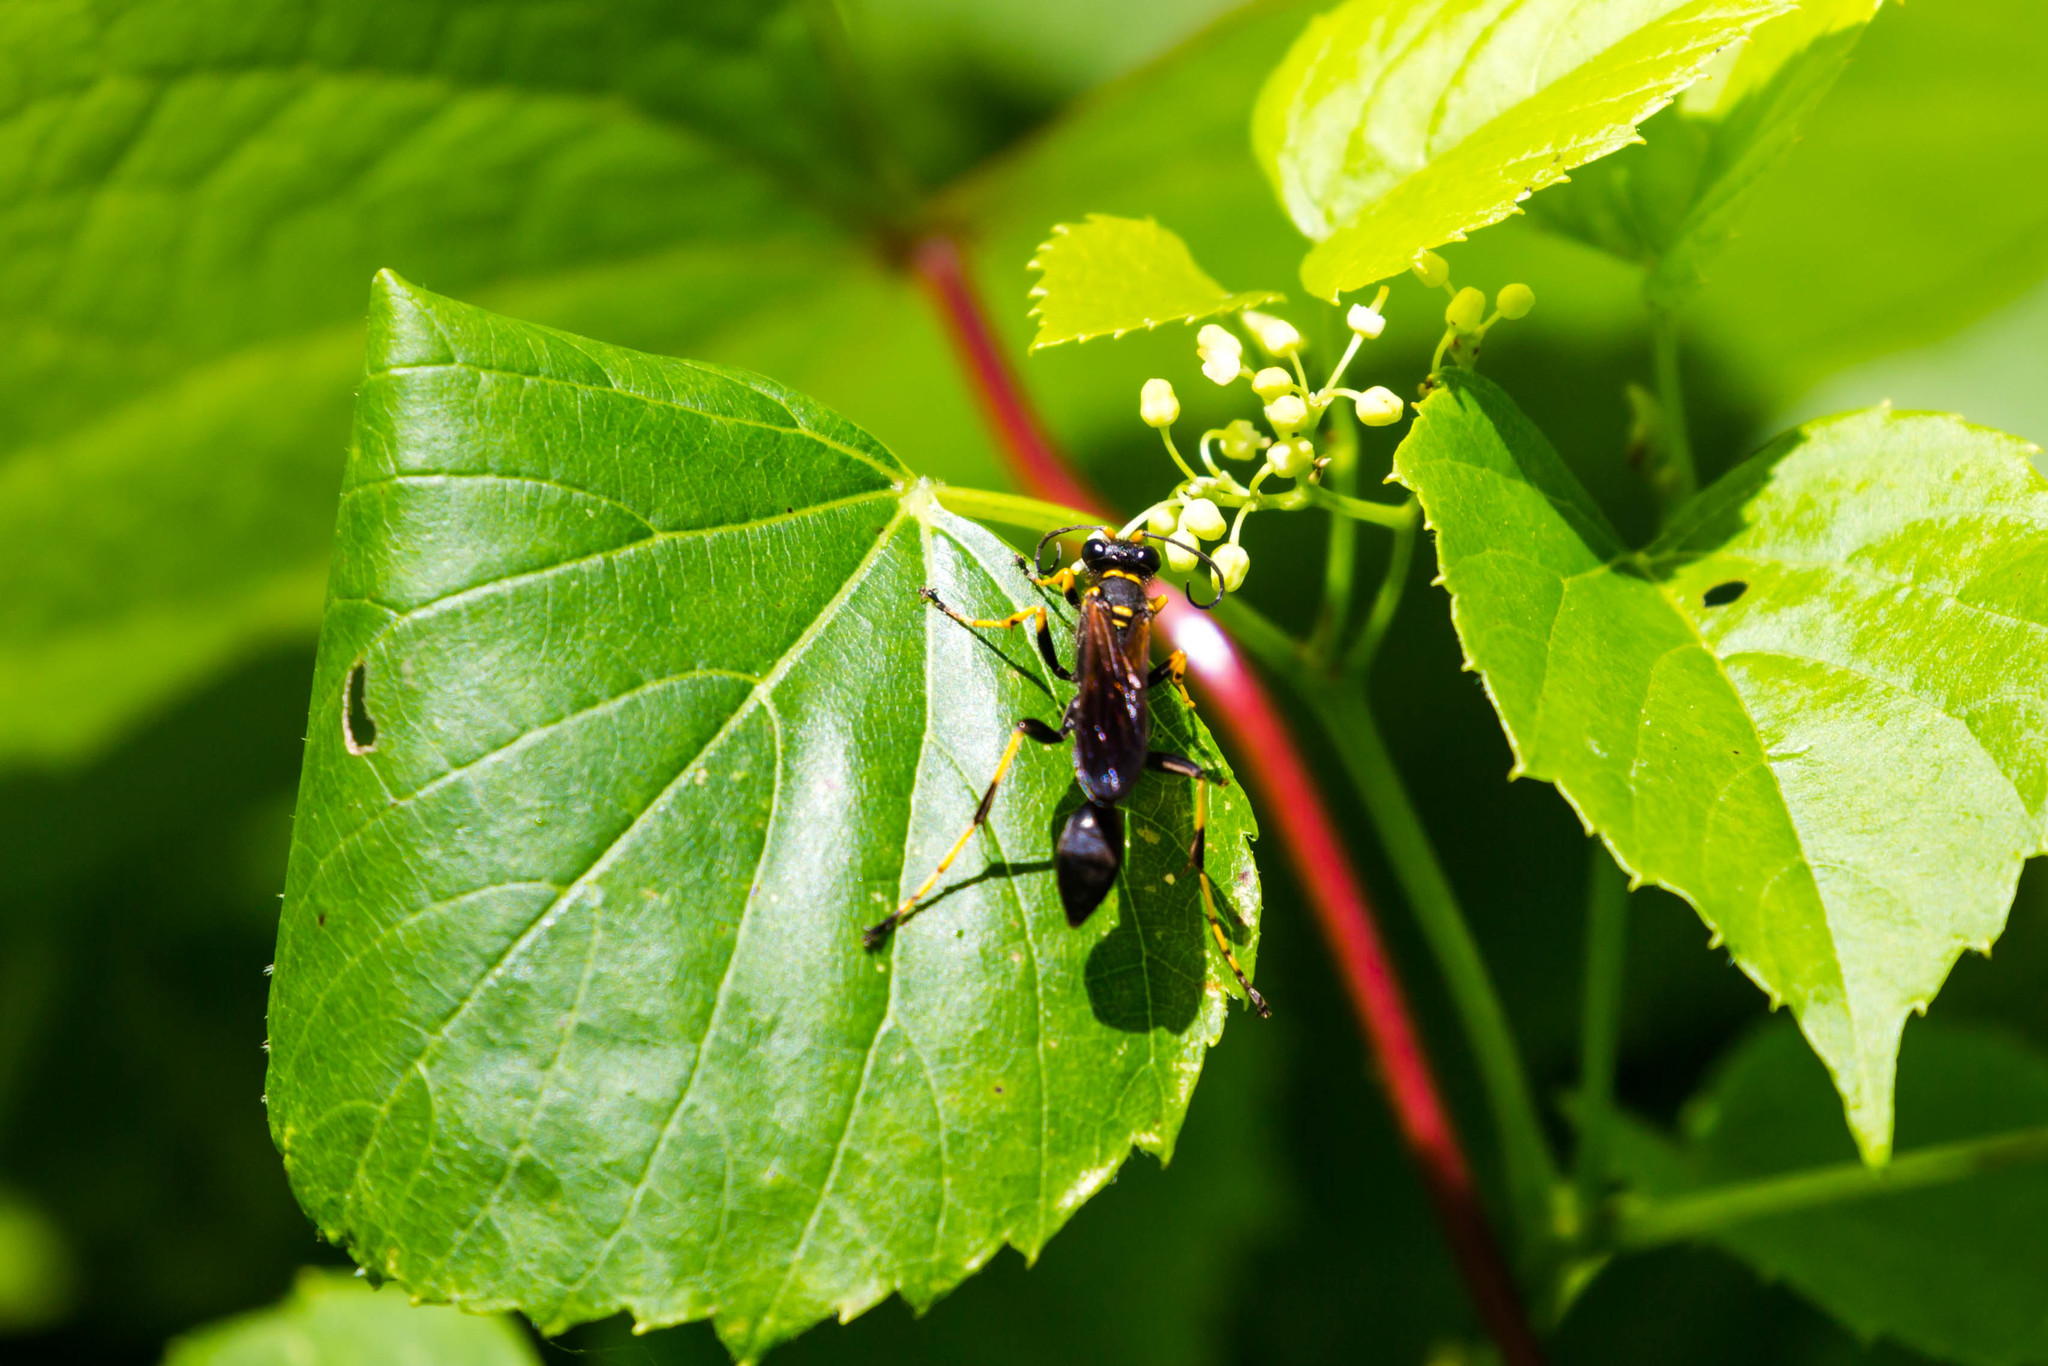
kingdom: Animalia
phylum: Arthropoda
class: Insecta
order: Hymenoptera
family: Sphecidae
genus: Sceliphron
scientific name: Sceliphron caementarium
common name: Mud dauber
